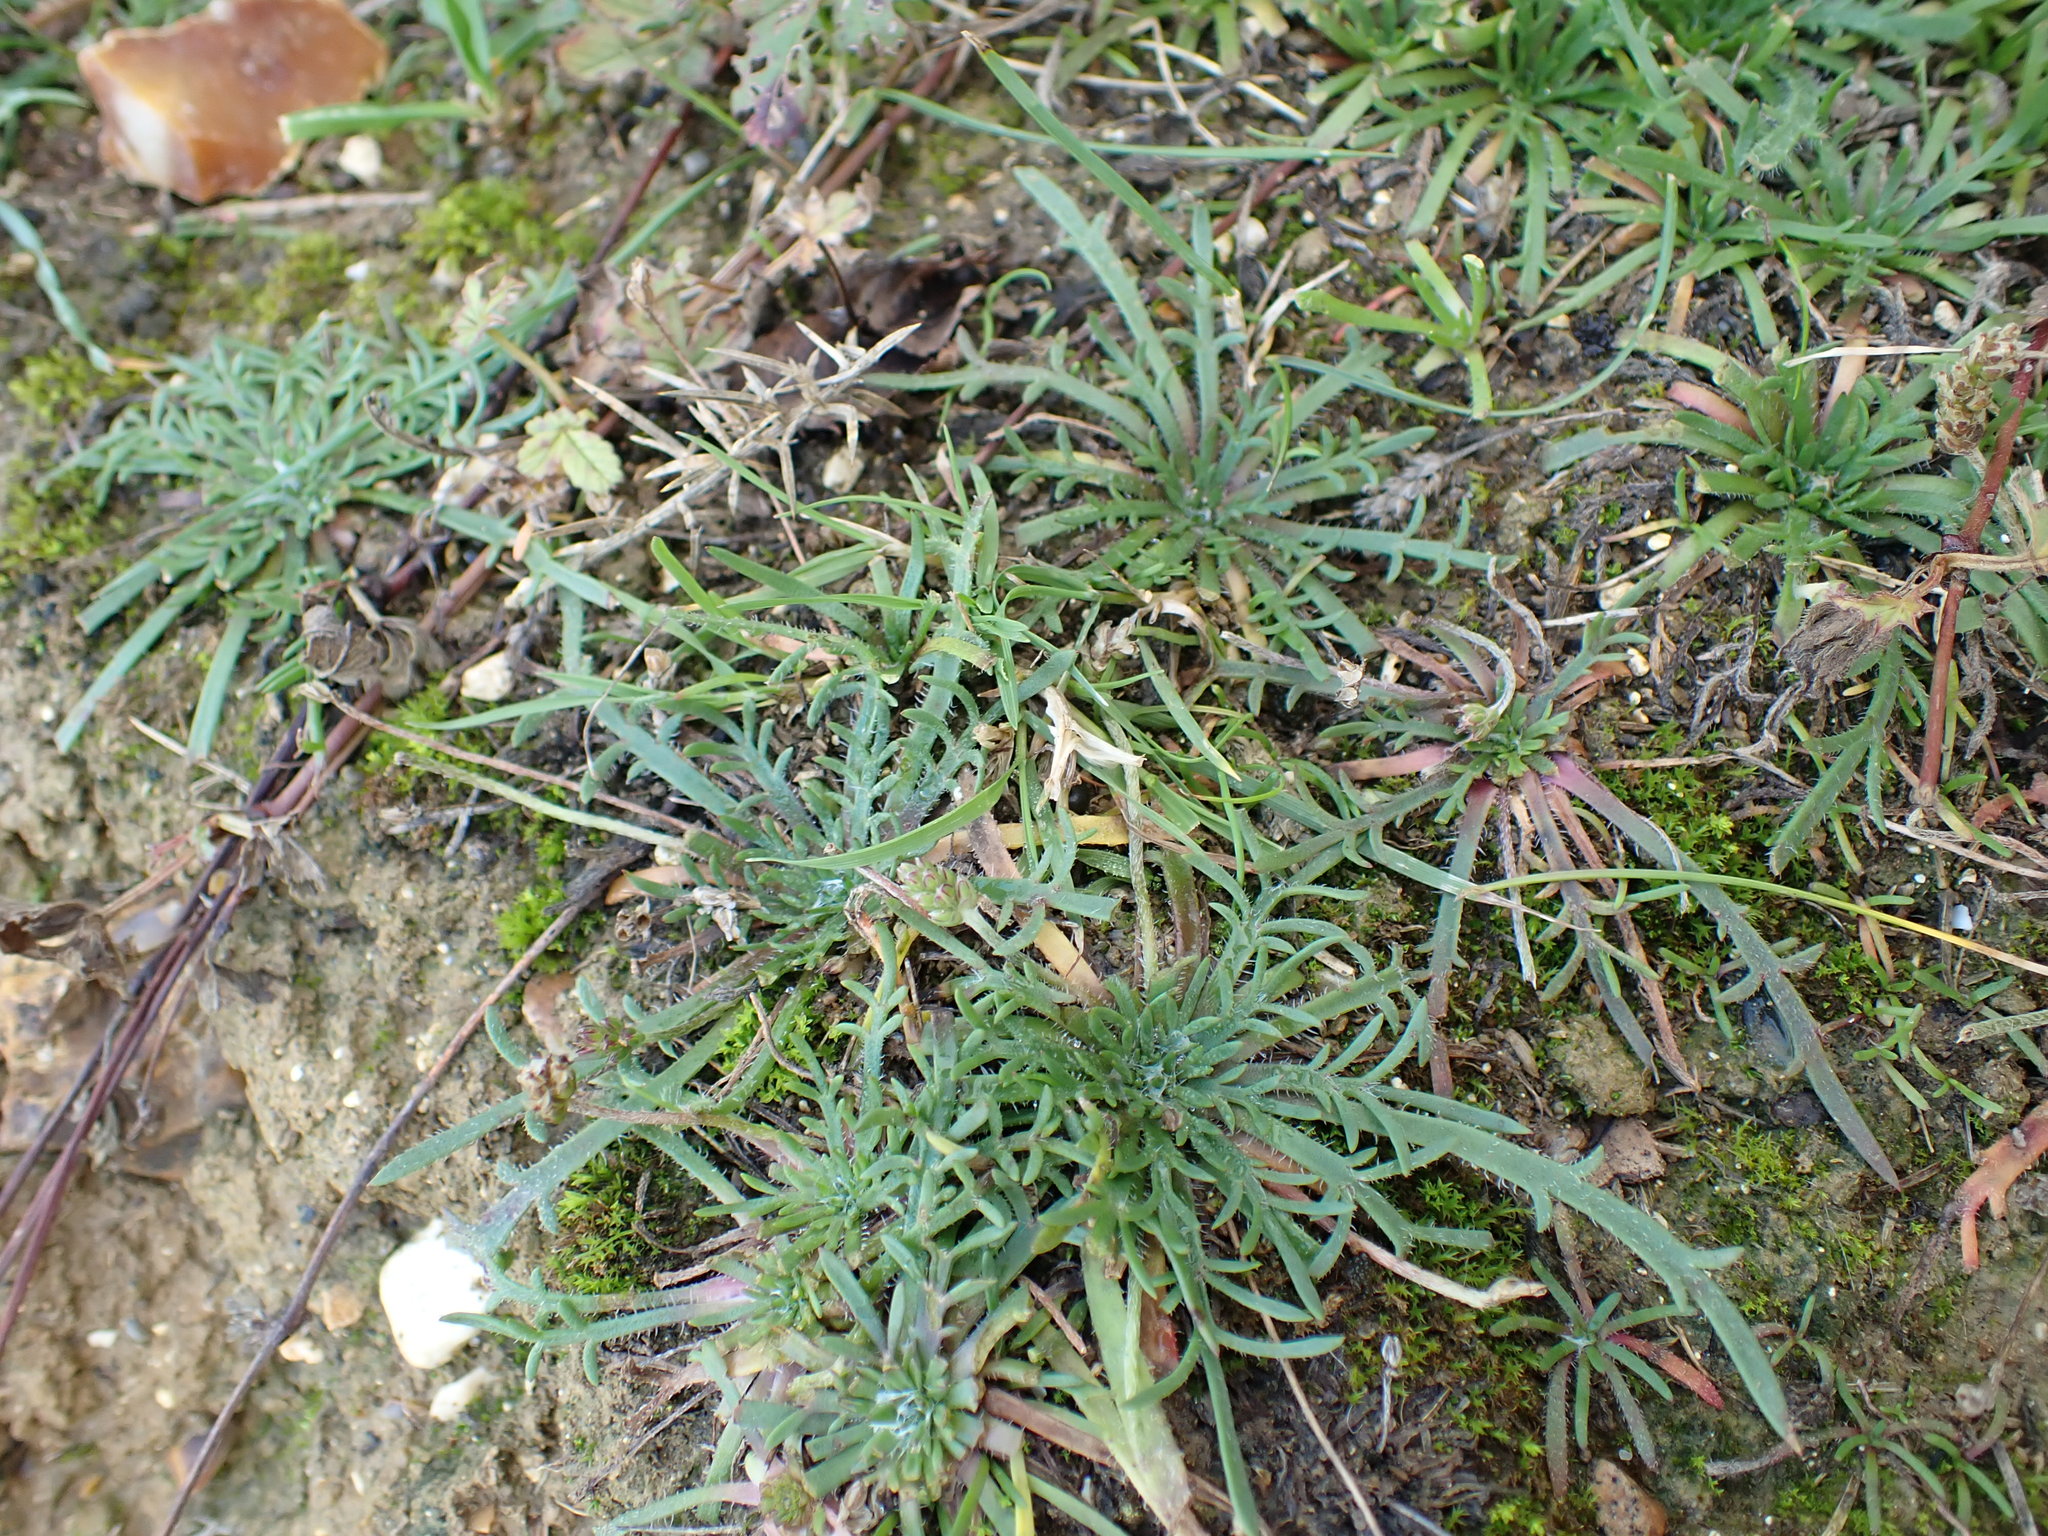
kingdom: Plantae
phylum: Tracheophyta
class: Magnoliopsida
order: Lamiales
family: Plantaginaceae
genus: Plantago
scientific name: Plantago coronopus
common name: Buck's-horn plantain
